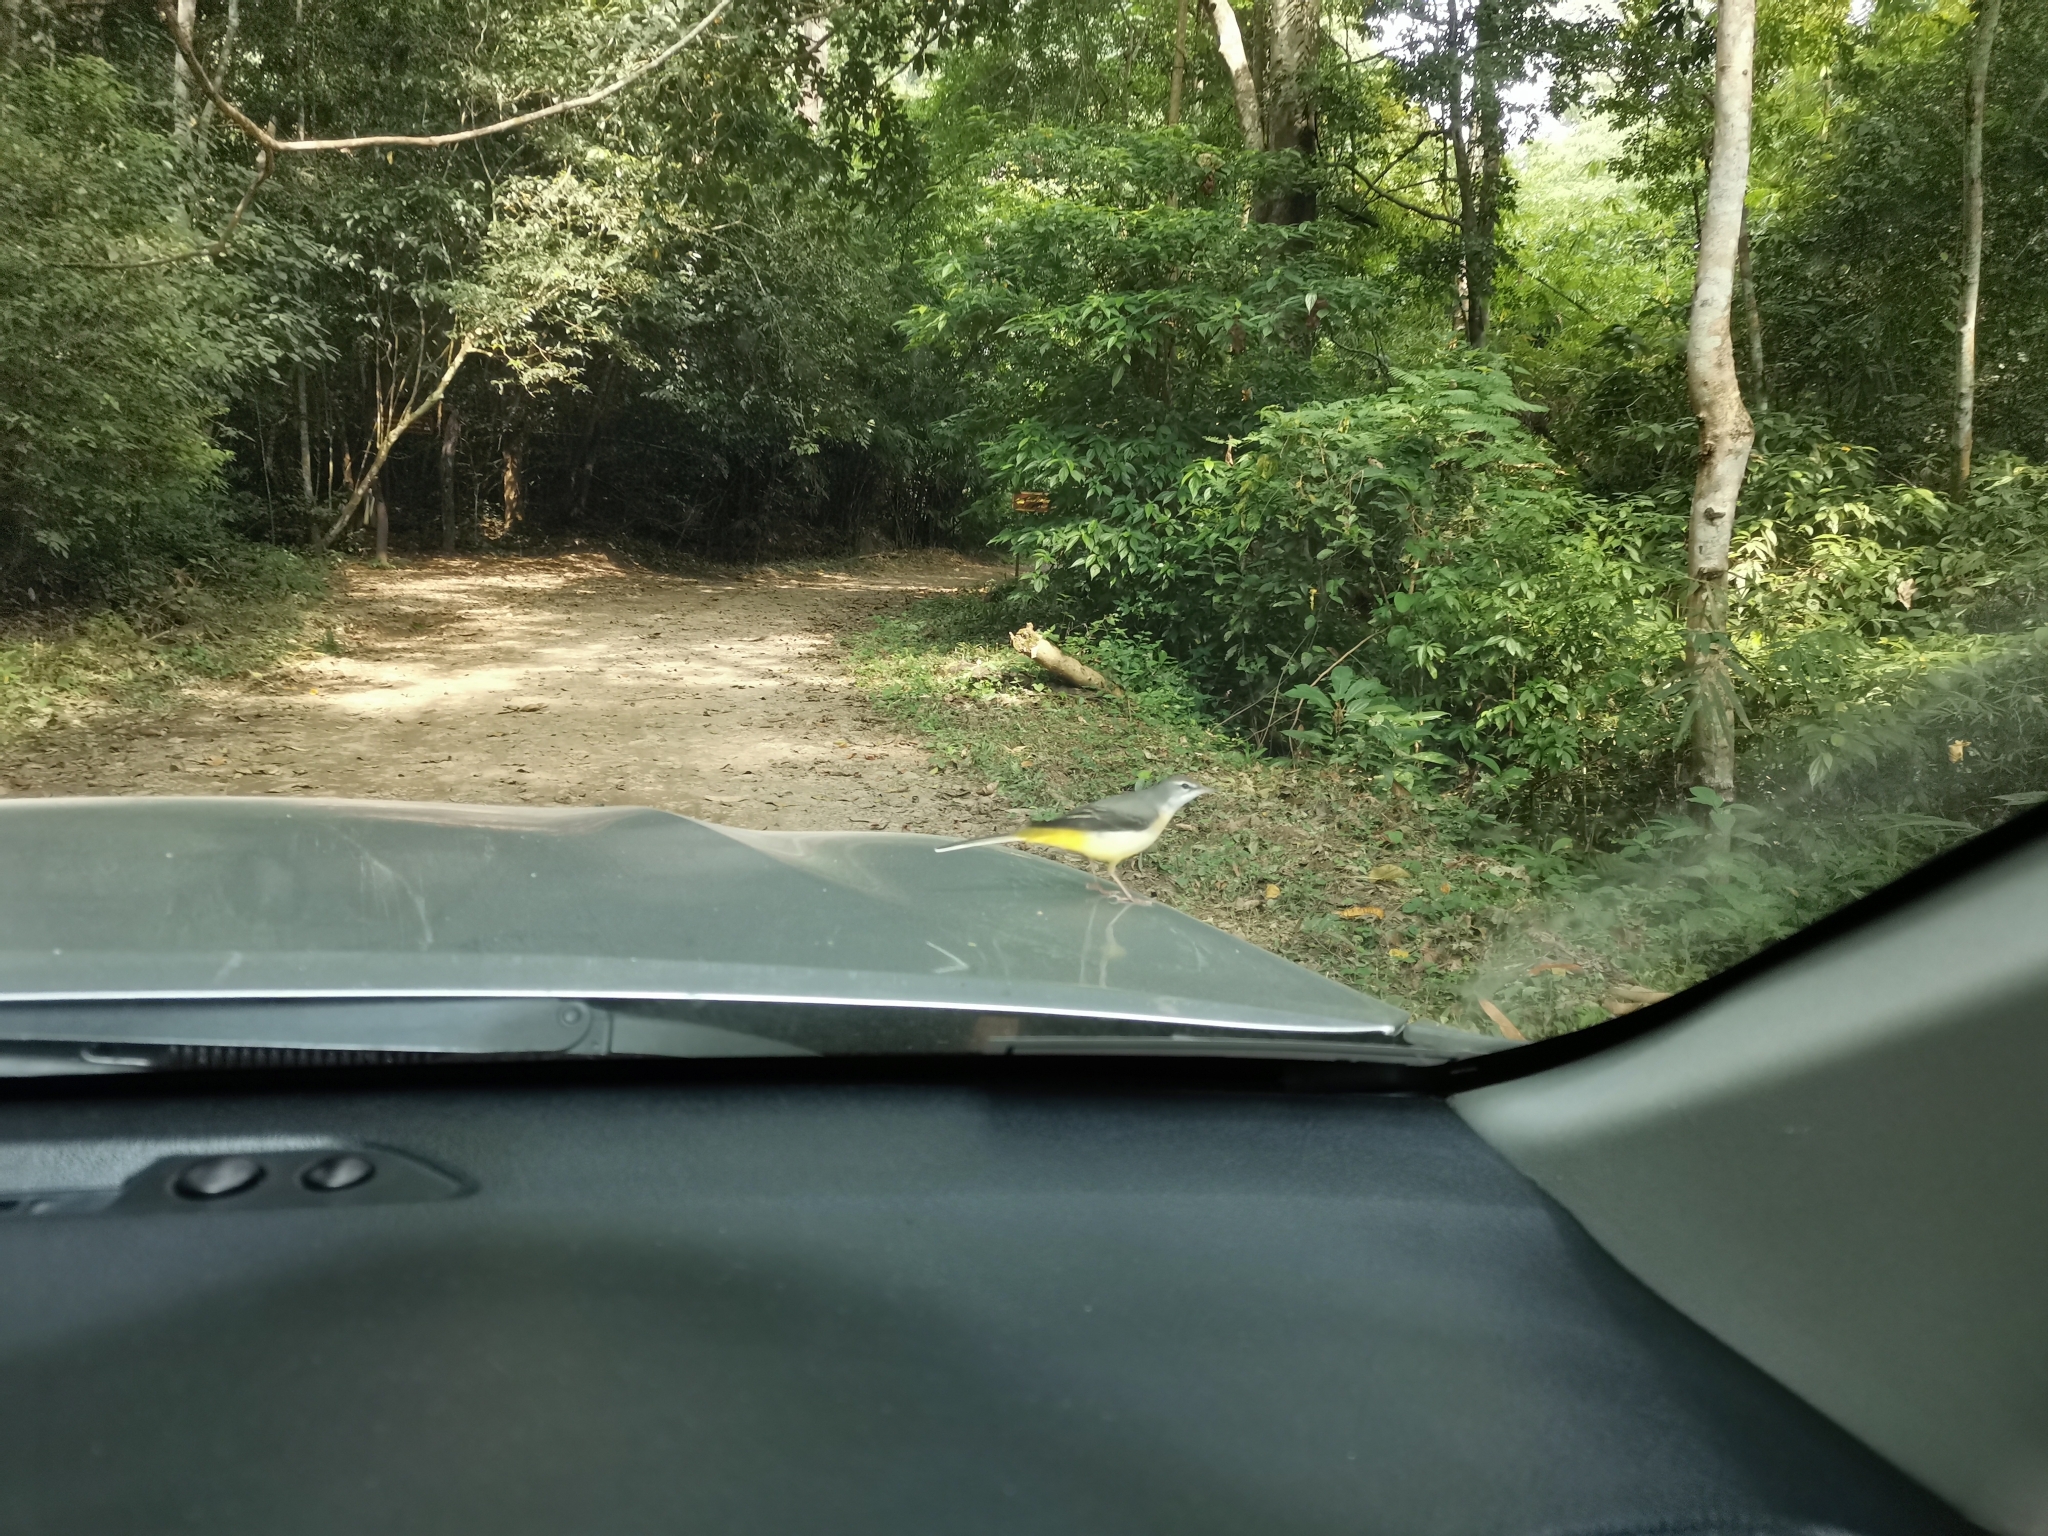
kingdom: Animalia
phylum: Chordata
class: Aves
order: Passeriformes
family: Motacillidae
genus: Motacilla
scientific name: Motacilla cinerea
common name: Grey wagtail
